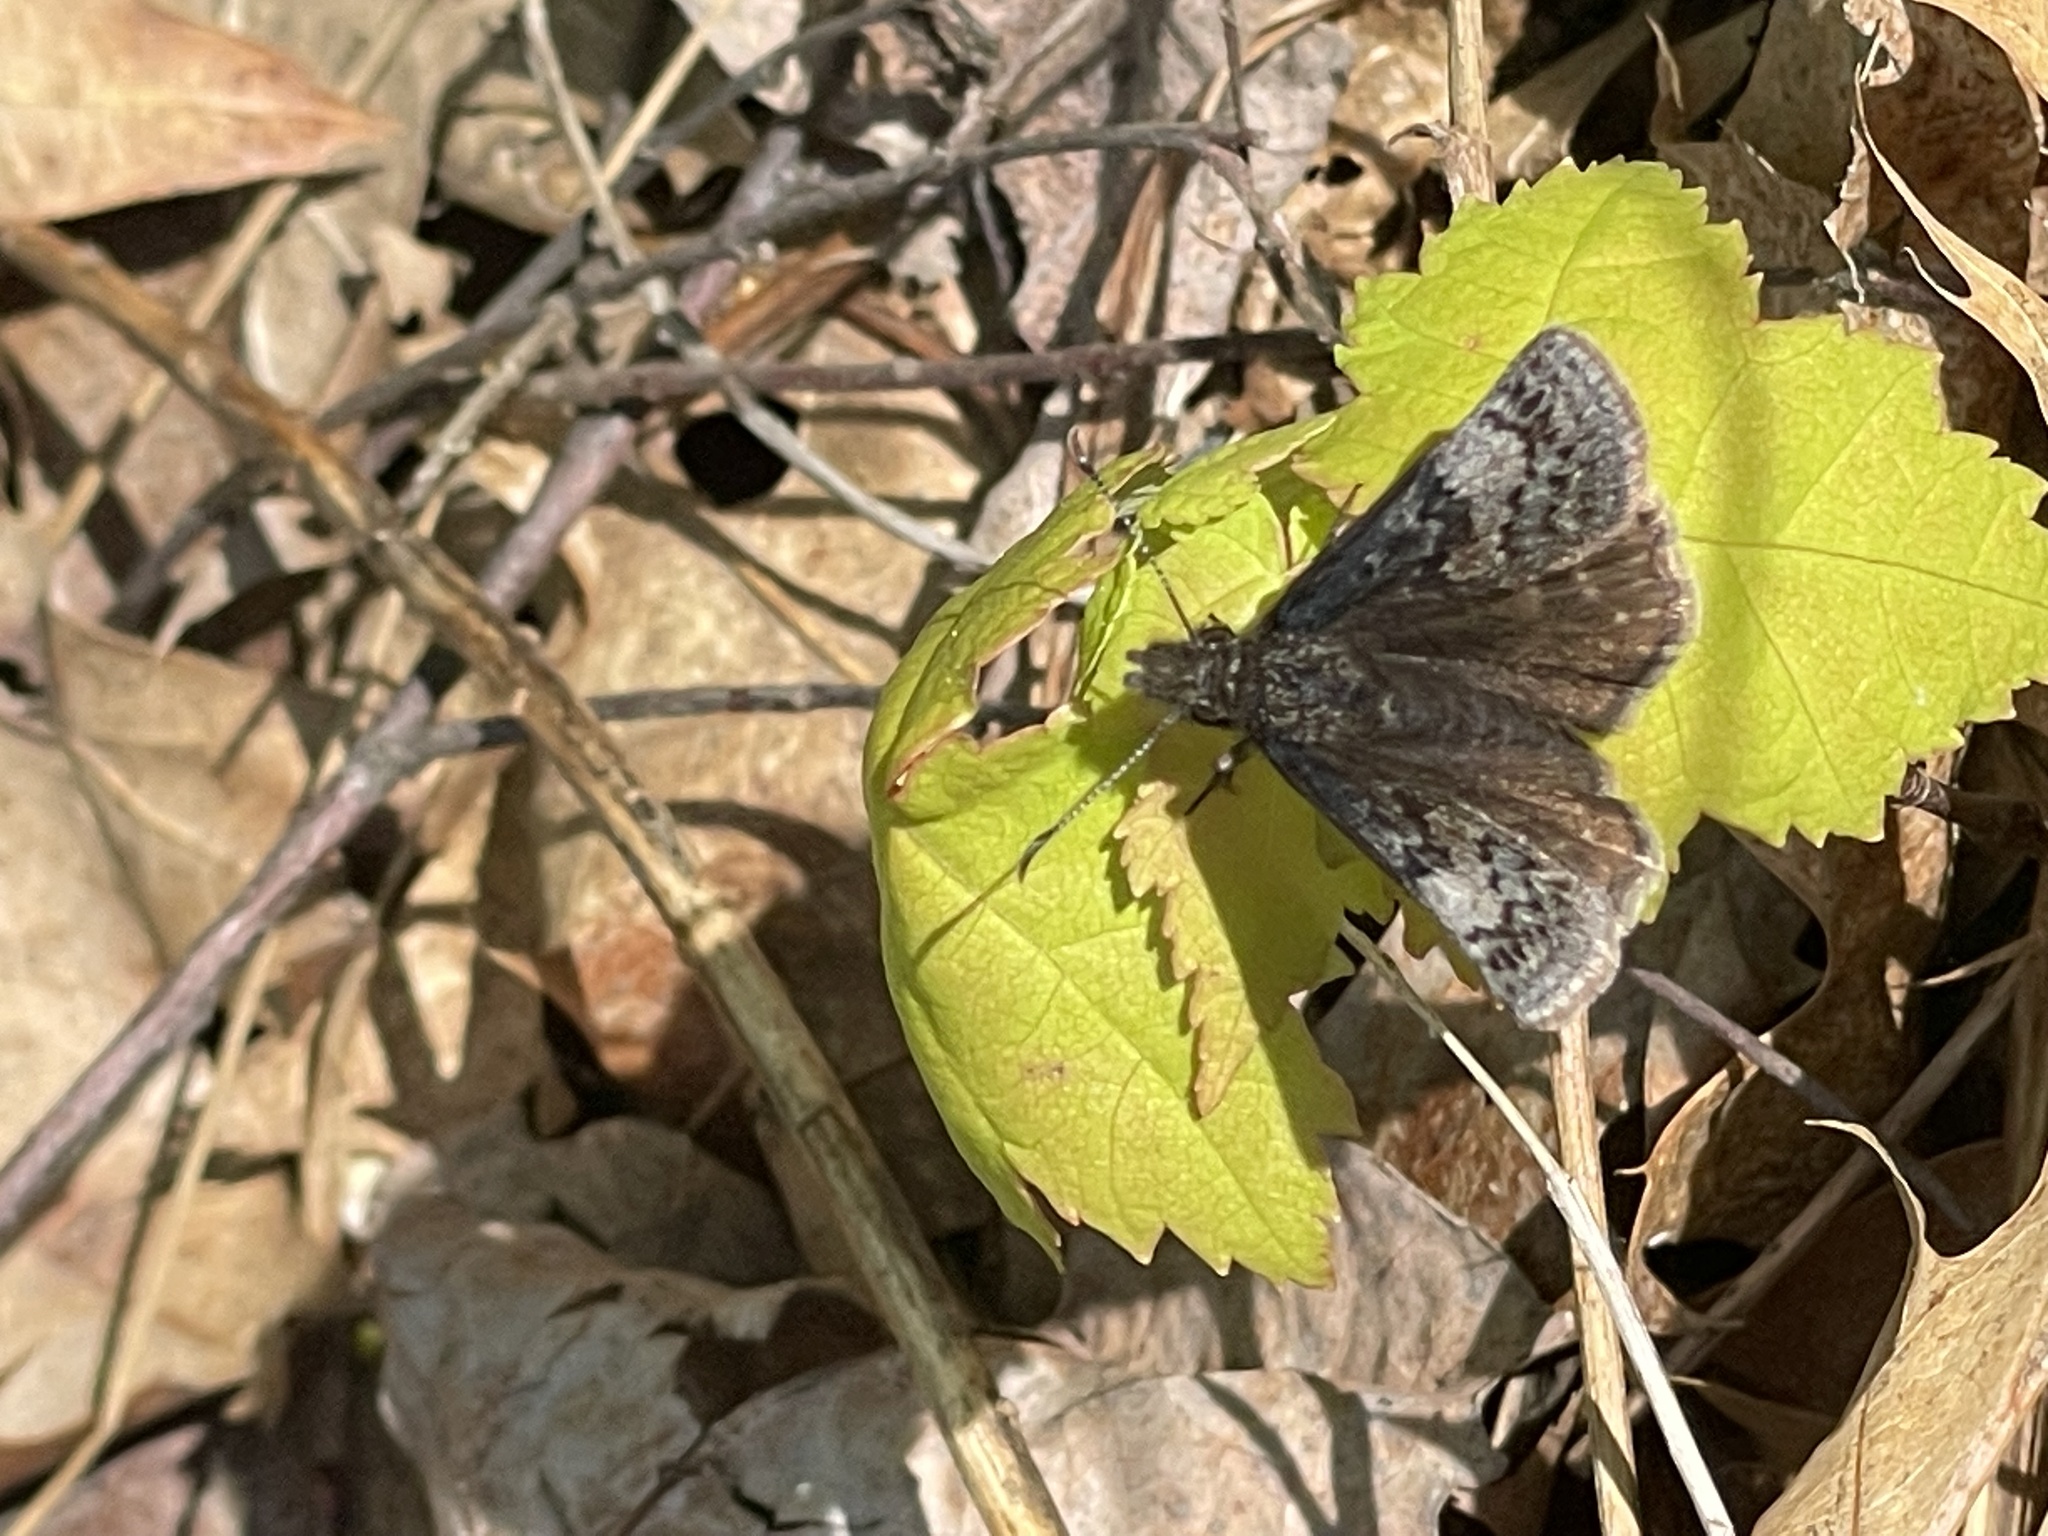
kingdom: Animalia
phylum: Arthropoda
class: Insecta
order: Lepidoptera
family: Hesperiidae
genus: Erynnis
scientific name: Erynnis icelus
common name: Dreamy duskywing
